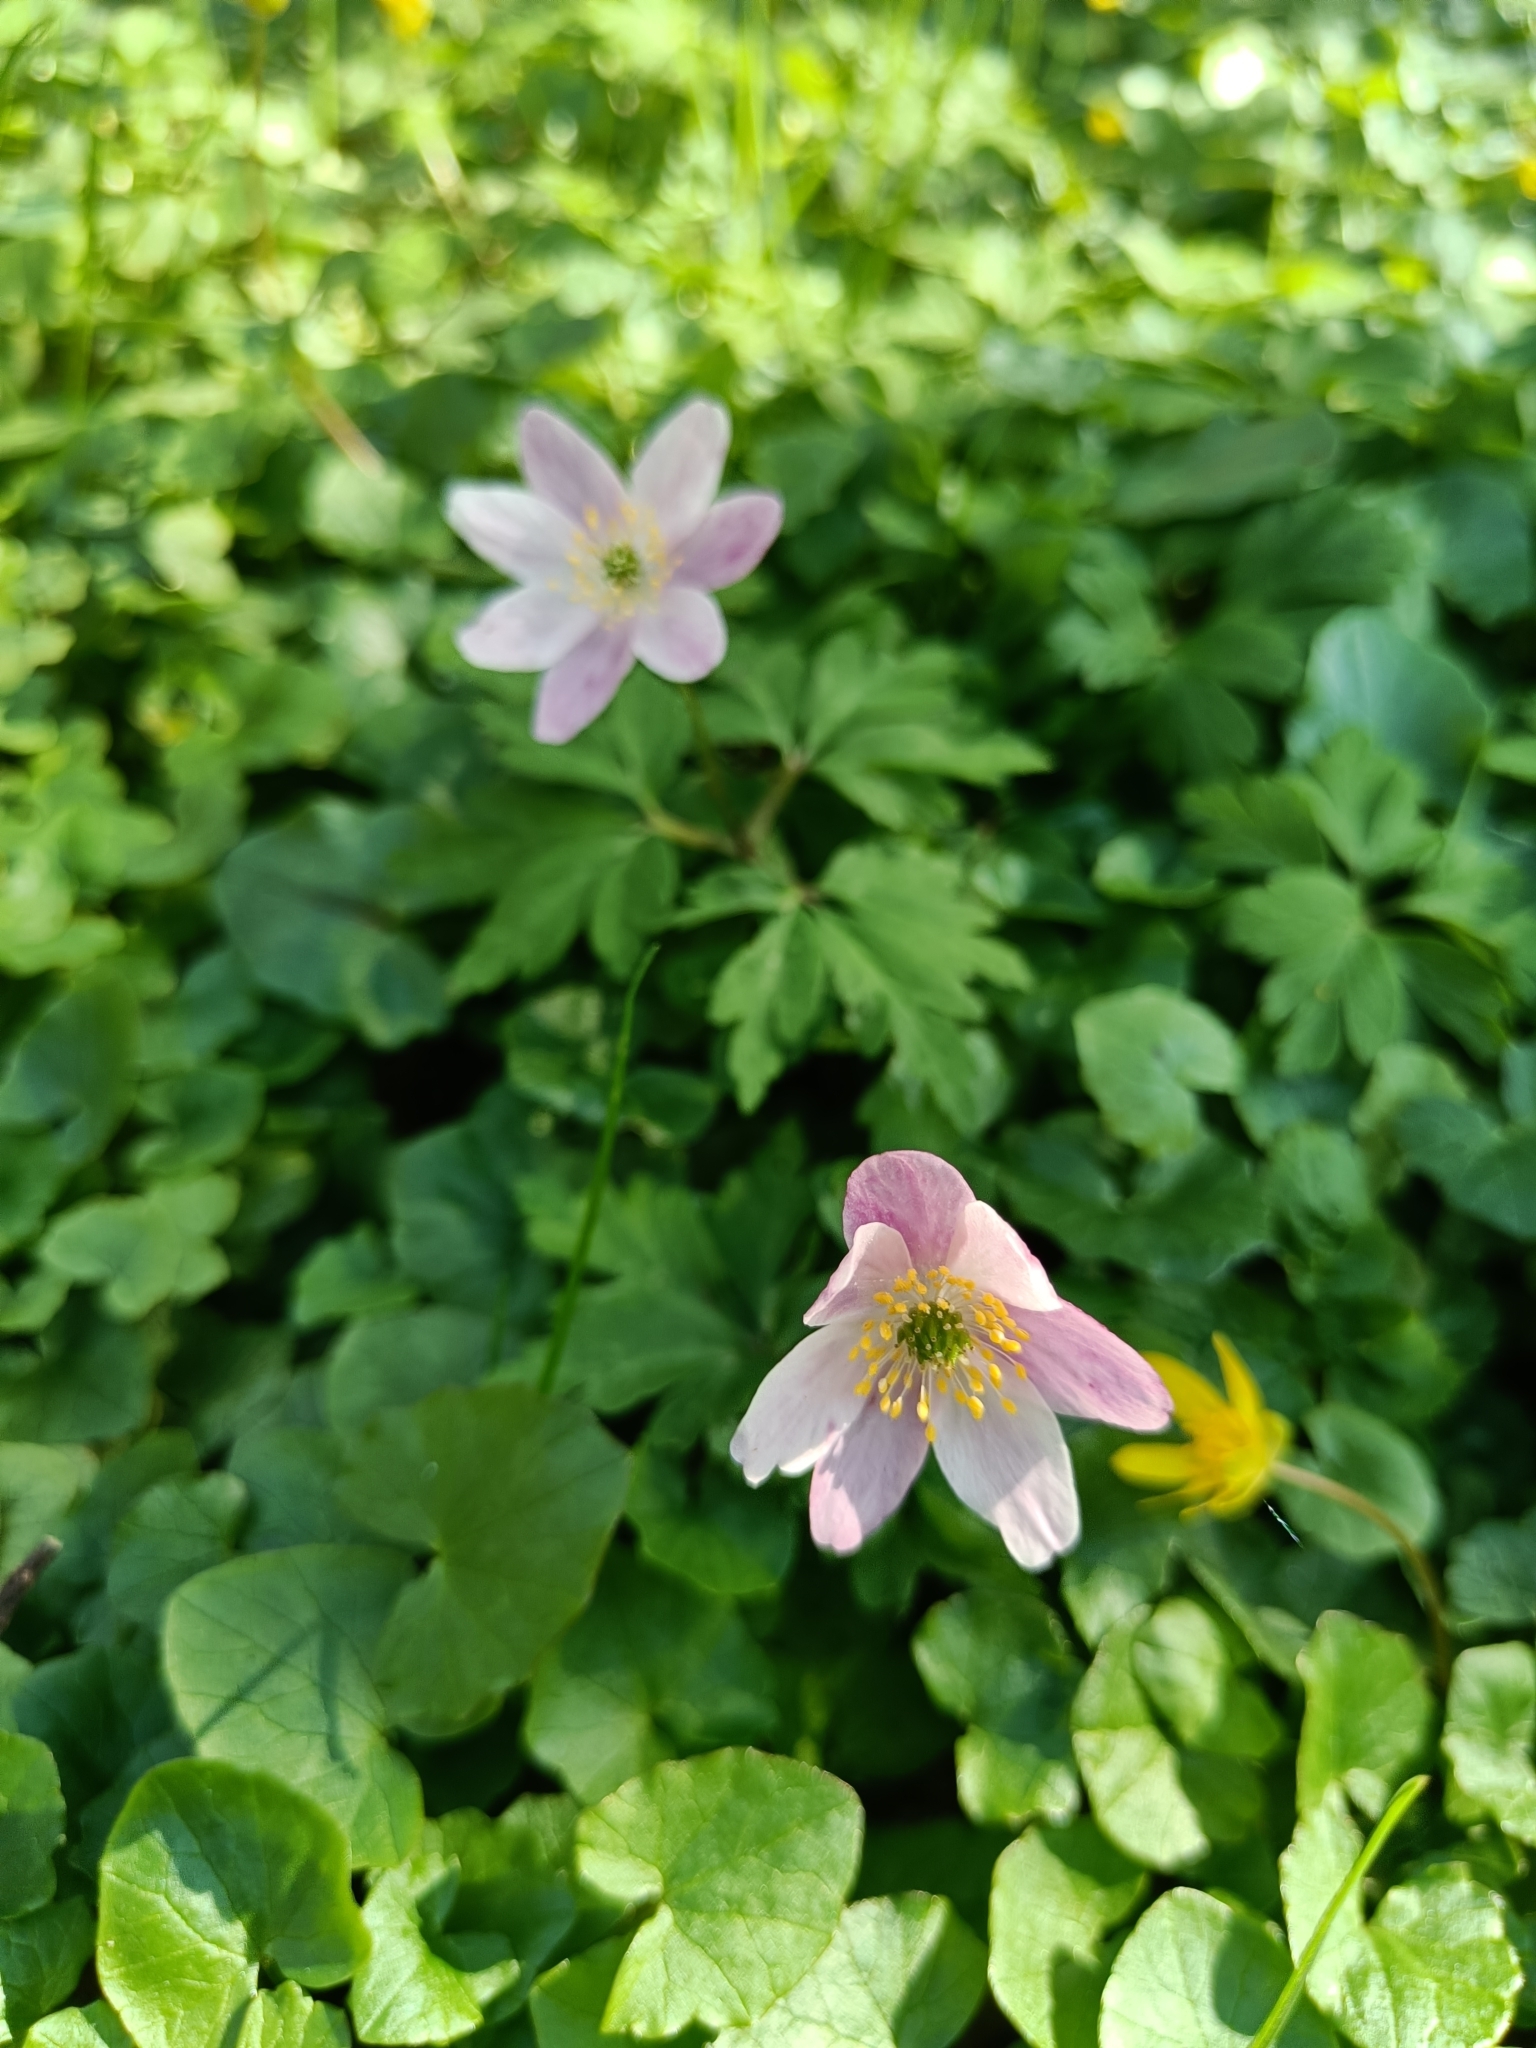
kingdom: Plantae
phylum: Tracheophyta
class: Magnoliopsida
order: Ranunculales
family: Ranunculaceae
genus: Anemone
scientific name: Anemone nemorosa
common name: Wood anemone
